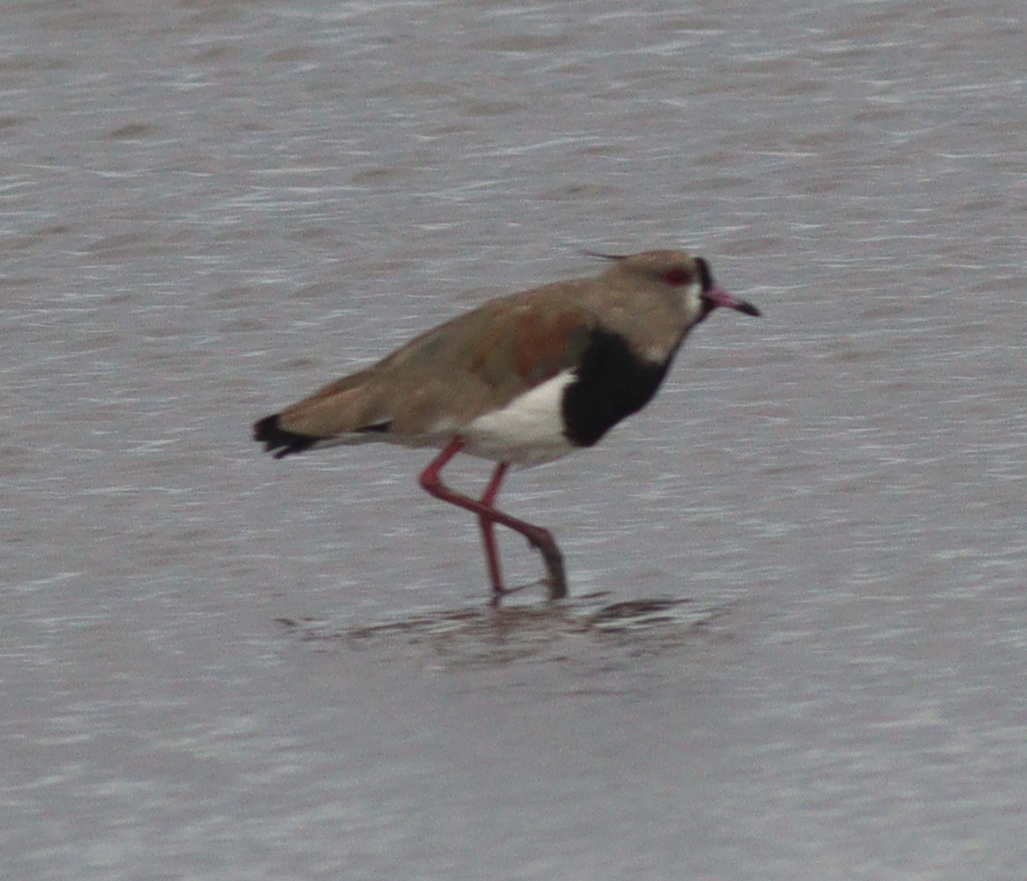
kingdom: Animalia
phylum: Chordata
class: Aves
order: Charadriiformes
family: Charadriidae
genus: Vanellus
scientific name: Vanellus chilensis
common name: Southern lapwing
